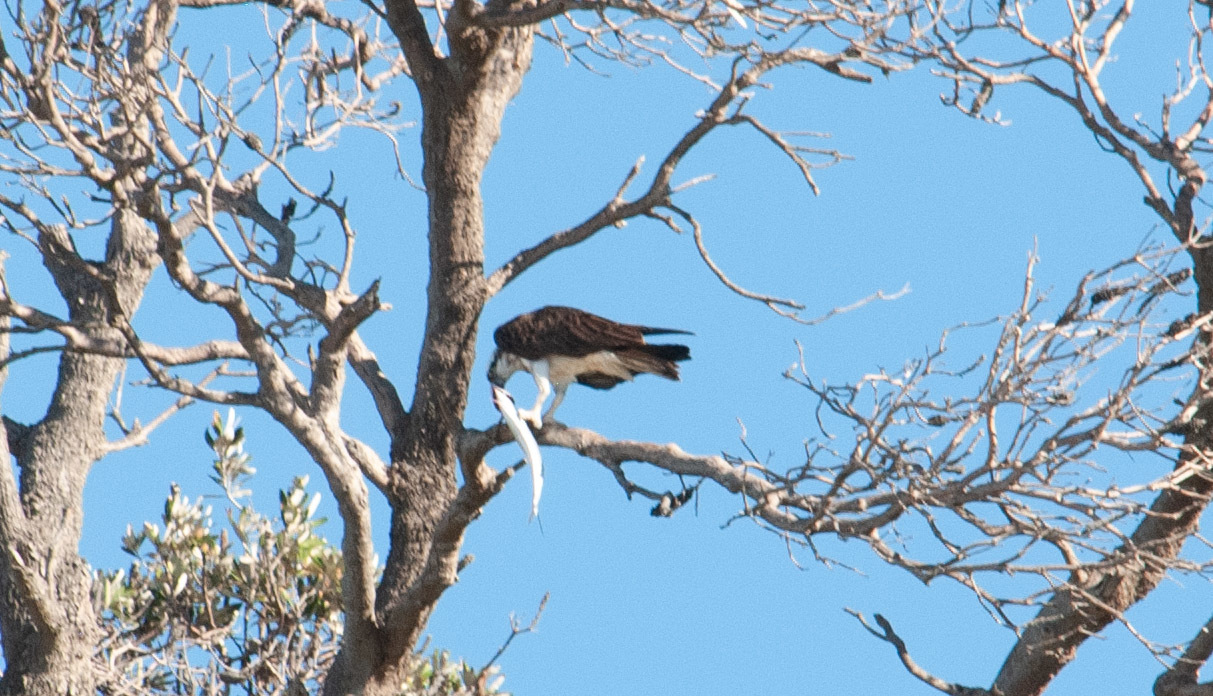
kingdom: Animalia
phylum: Chordata
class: Aves
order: Accipitriformes
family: Pandionidae
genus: Pandion
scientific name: Pandion cristatus
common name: Eastern osprey
